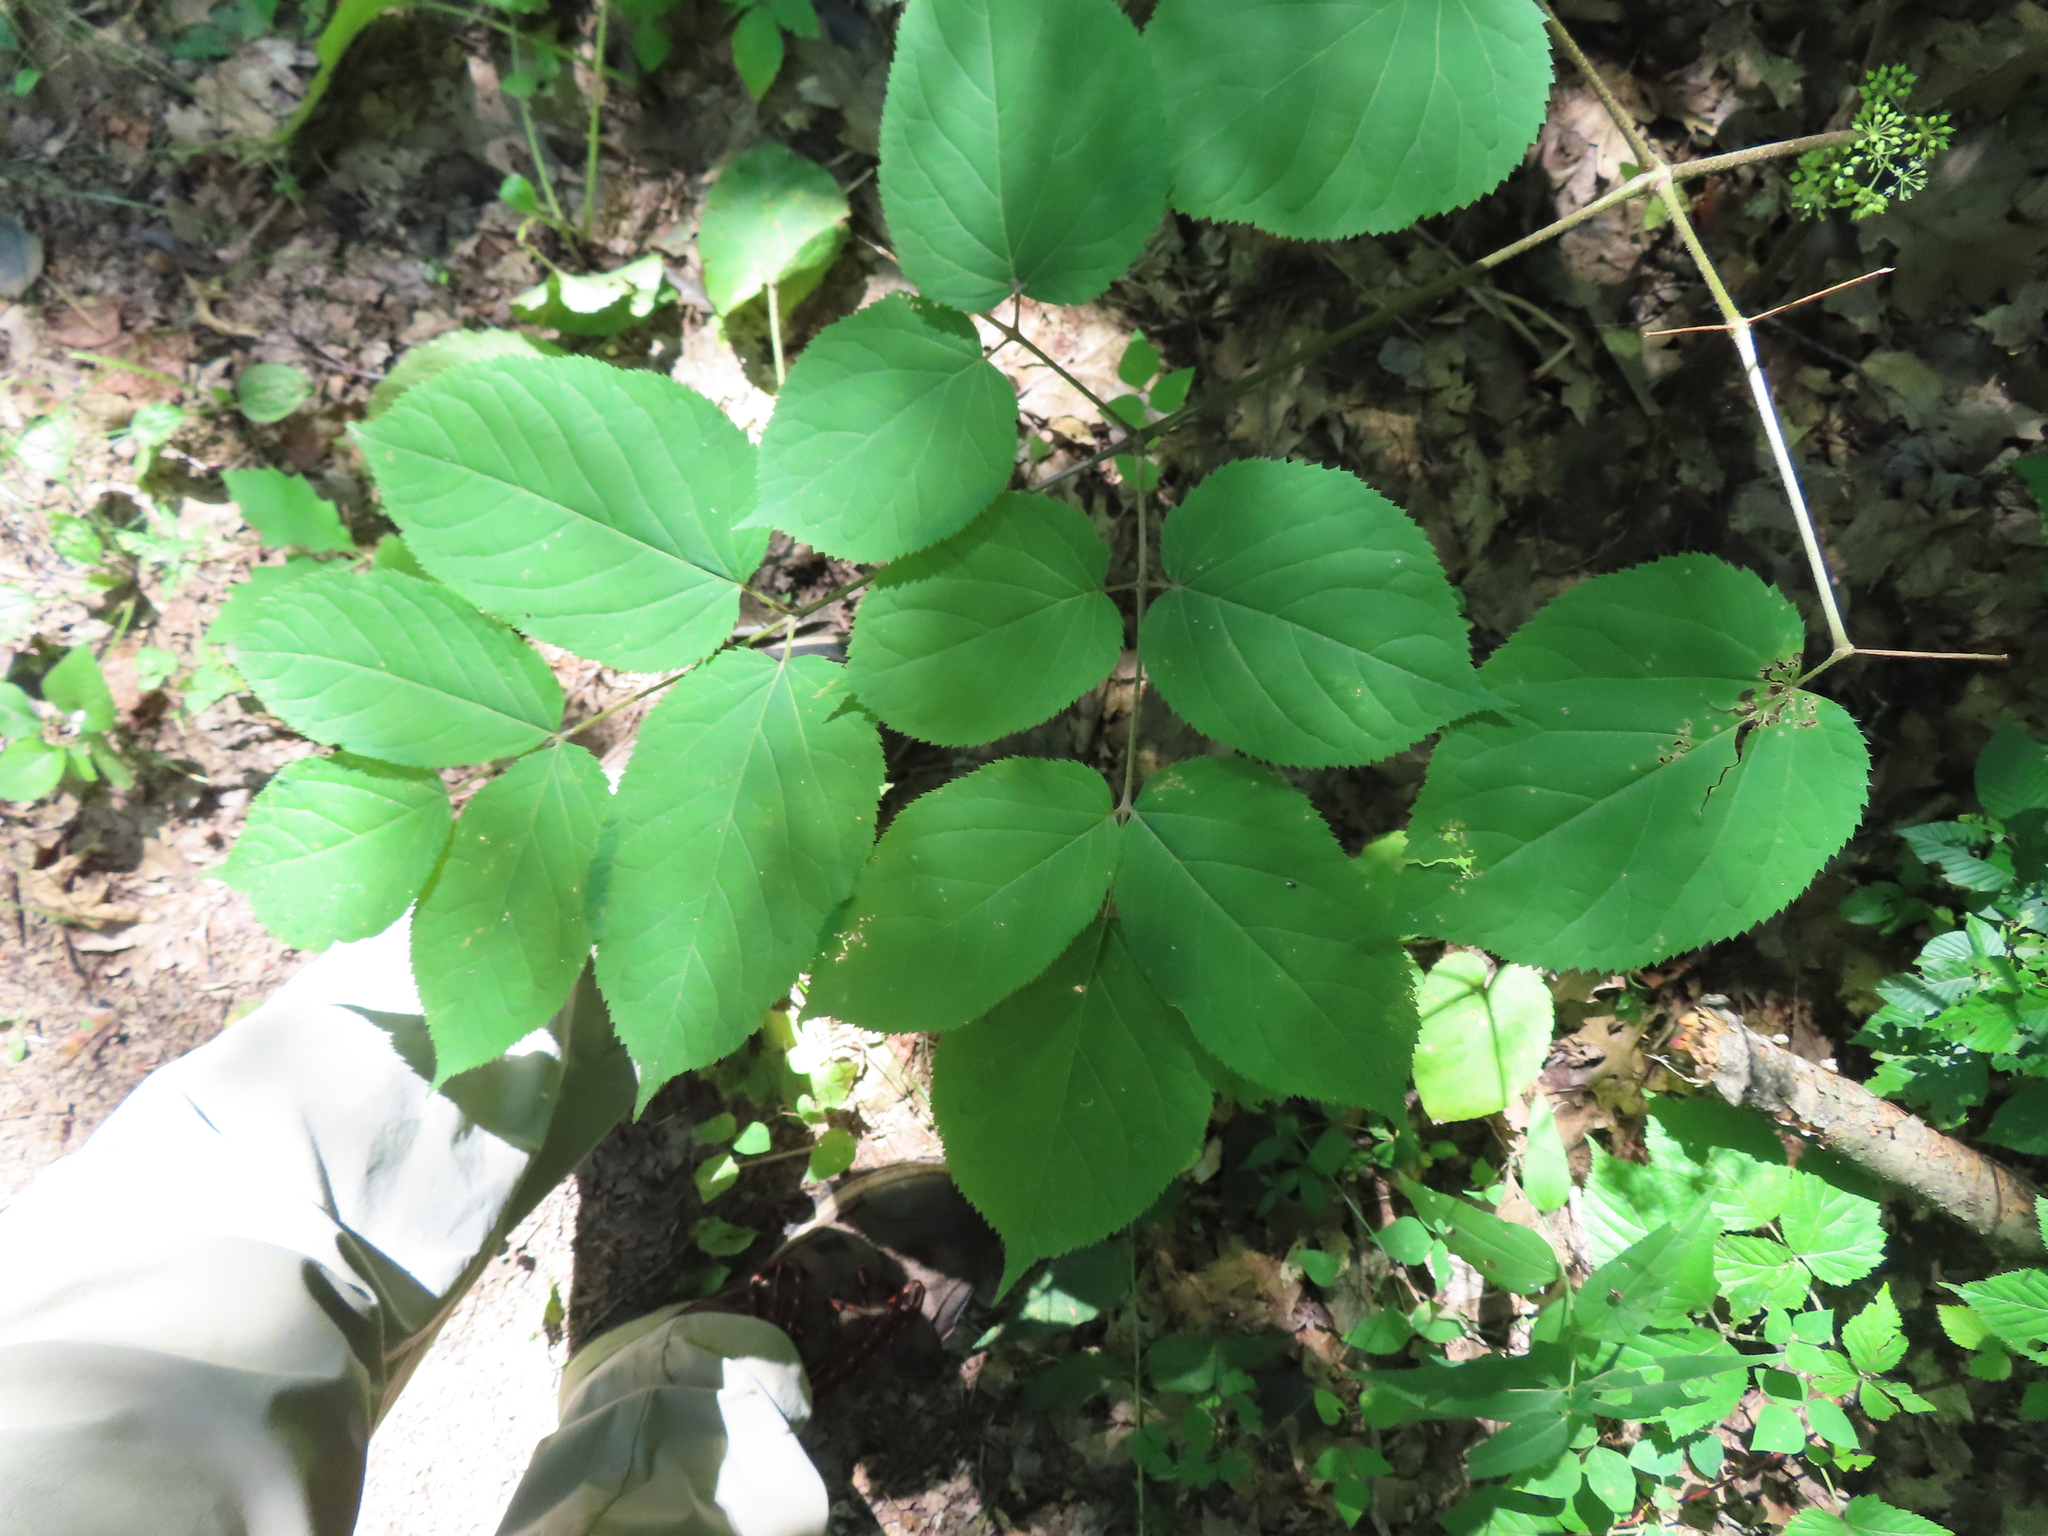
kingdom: Plantae
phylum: Tracheophyta
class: Magnoliopsida
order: Apiales
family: Araliaceae
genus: Aralia
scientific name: Aralia racemosa
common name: American-spikenard
